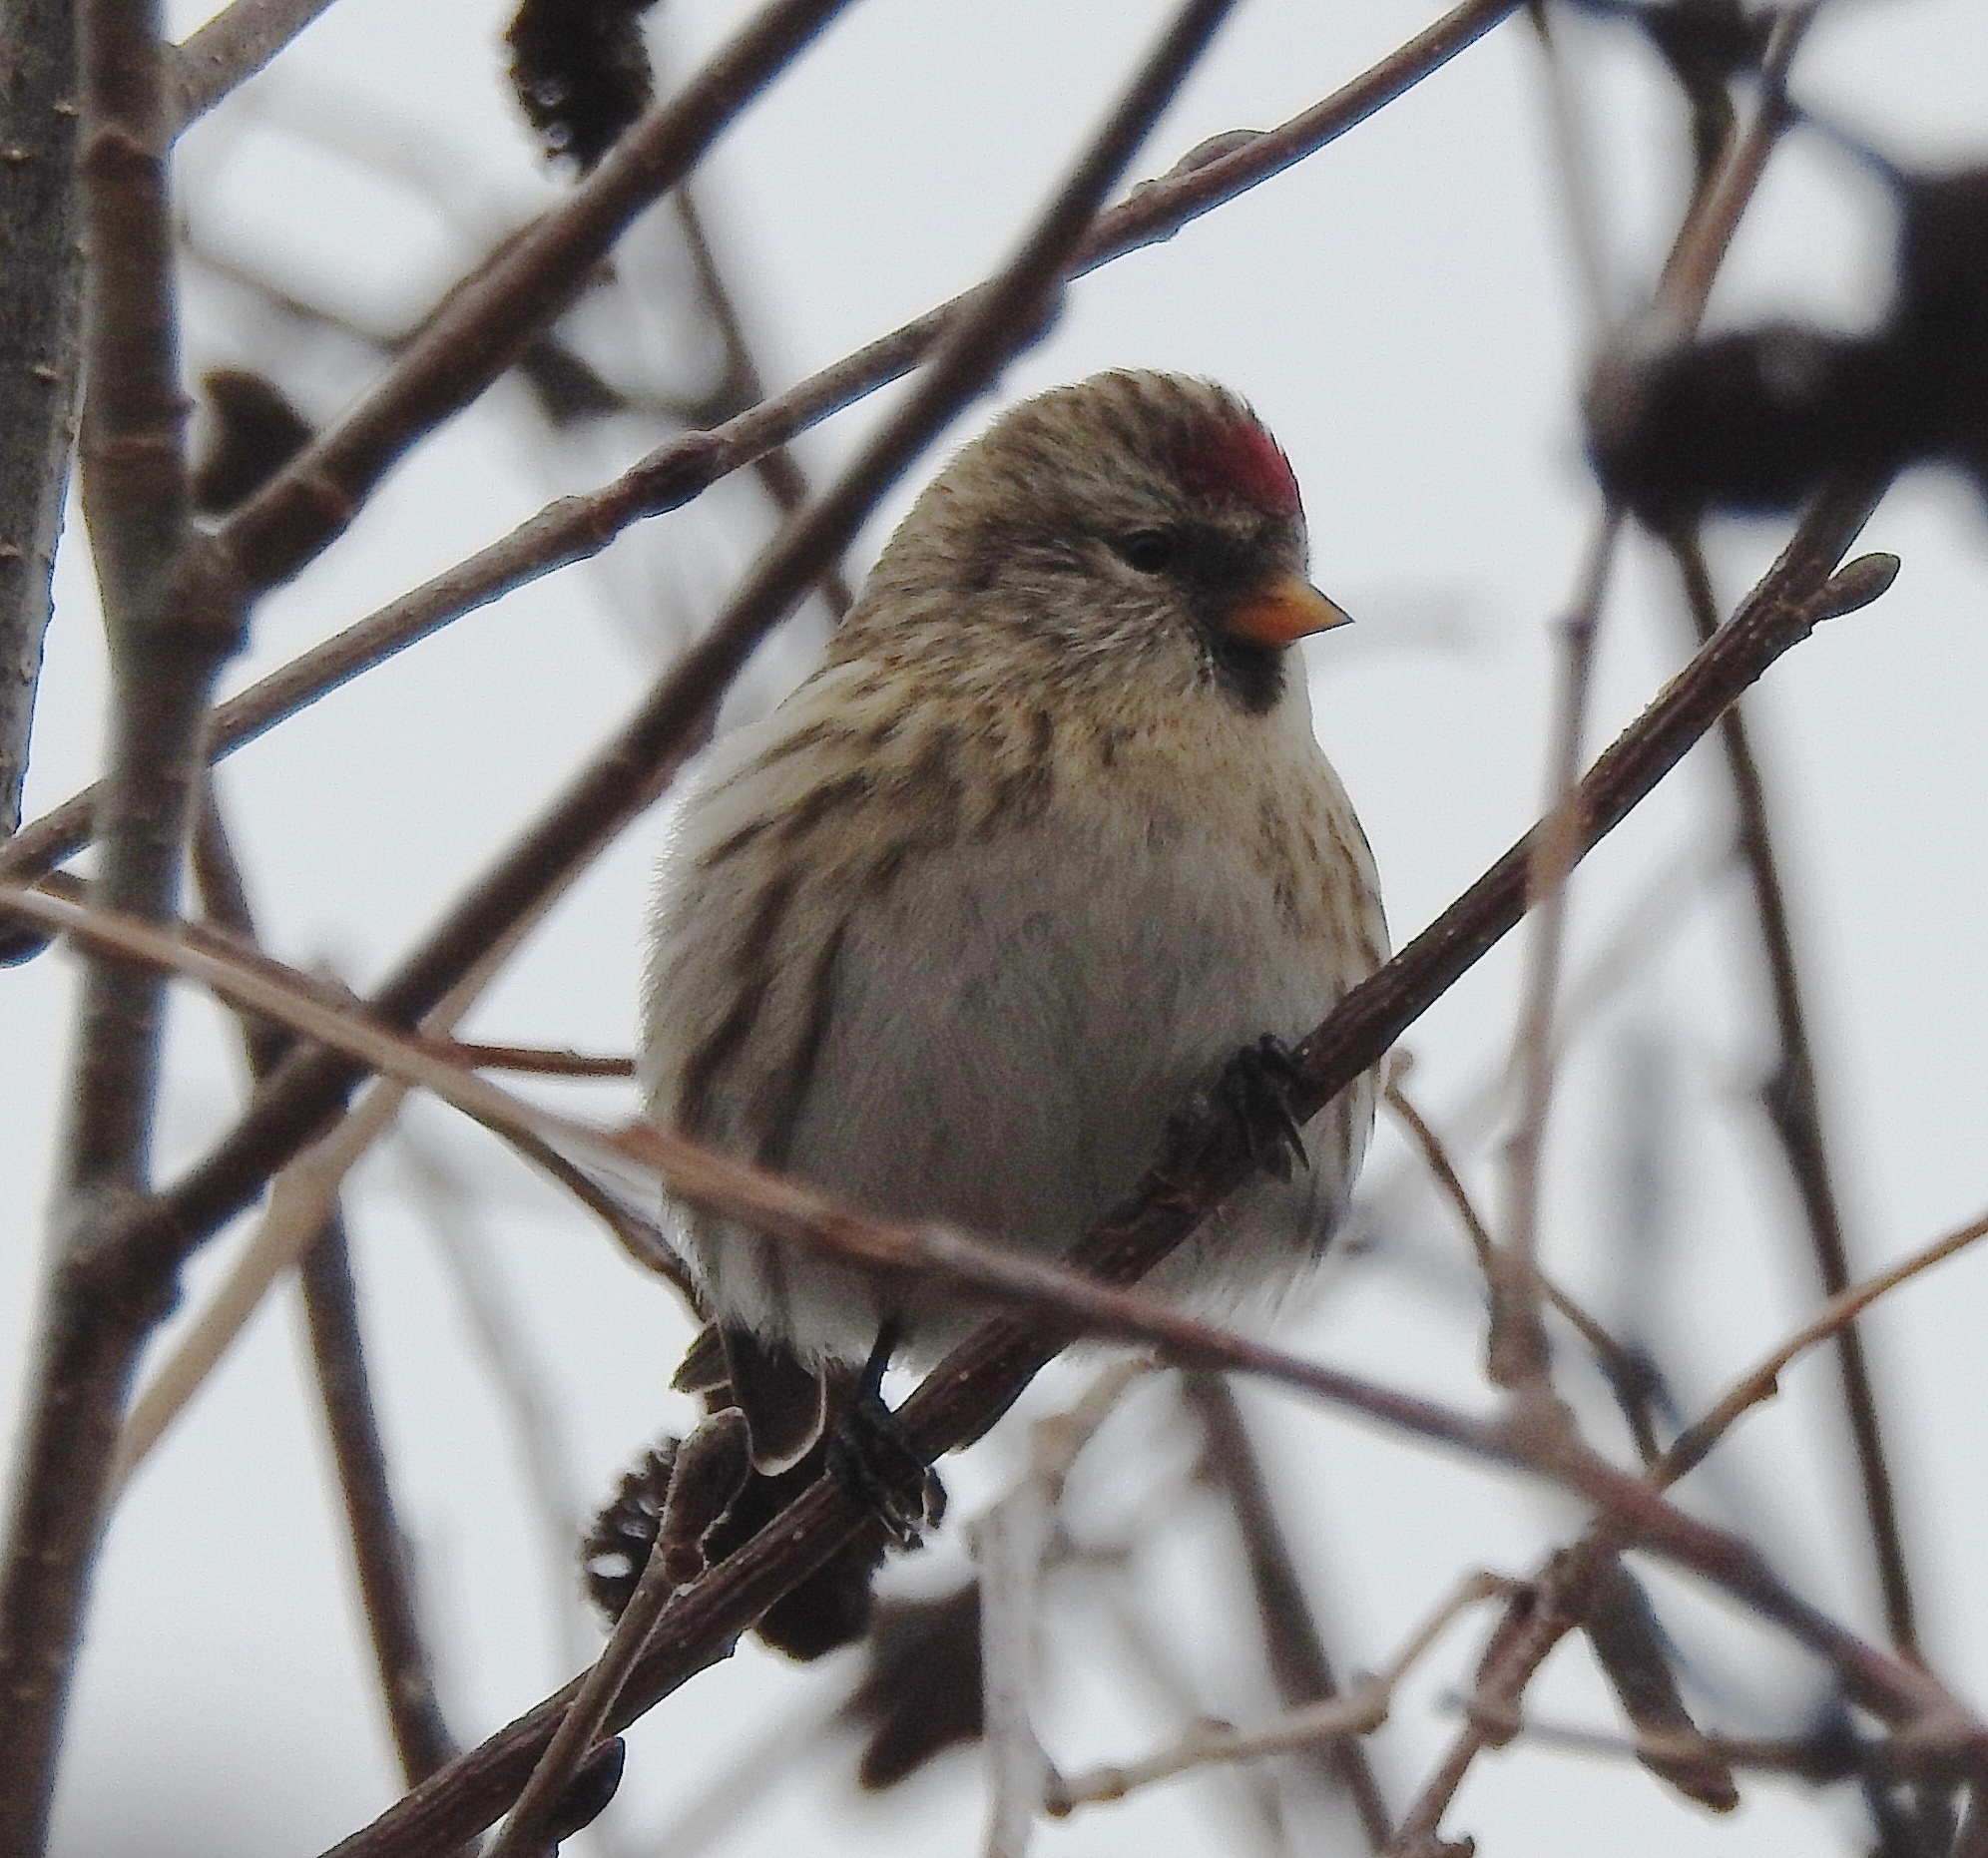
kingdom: Animalia
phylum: Chordata
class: Aves
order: Passeriformes
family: Fringillidae
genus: Acanthis
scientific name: Acanthis flammea
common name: Common redpoll
